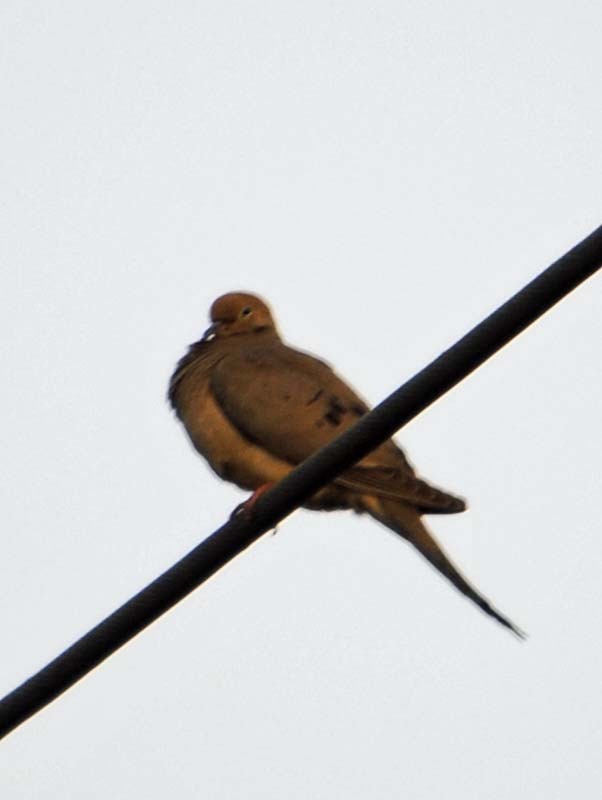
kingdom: Animalia
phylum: Chordata
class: Aves
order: Columbiformes
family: Columbidae
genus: Zenaida
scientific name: Zenaida macroura
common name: Mourning dove
